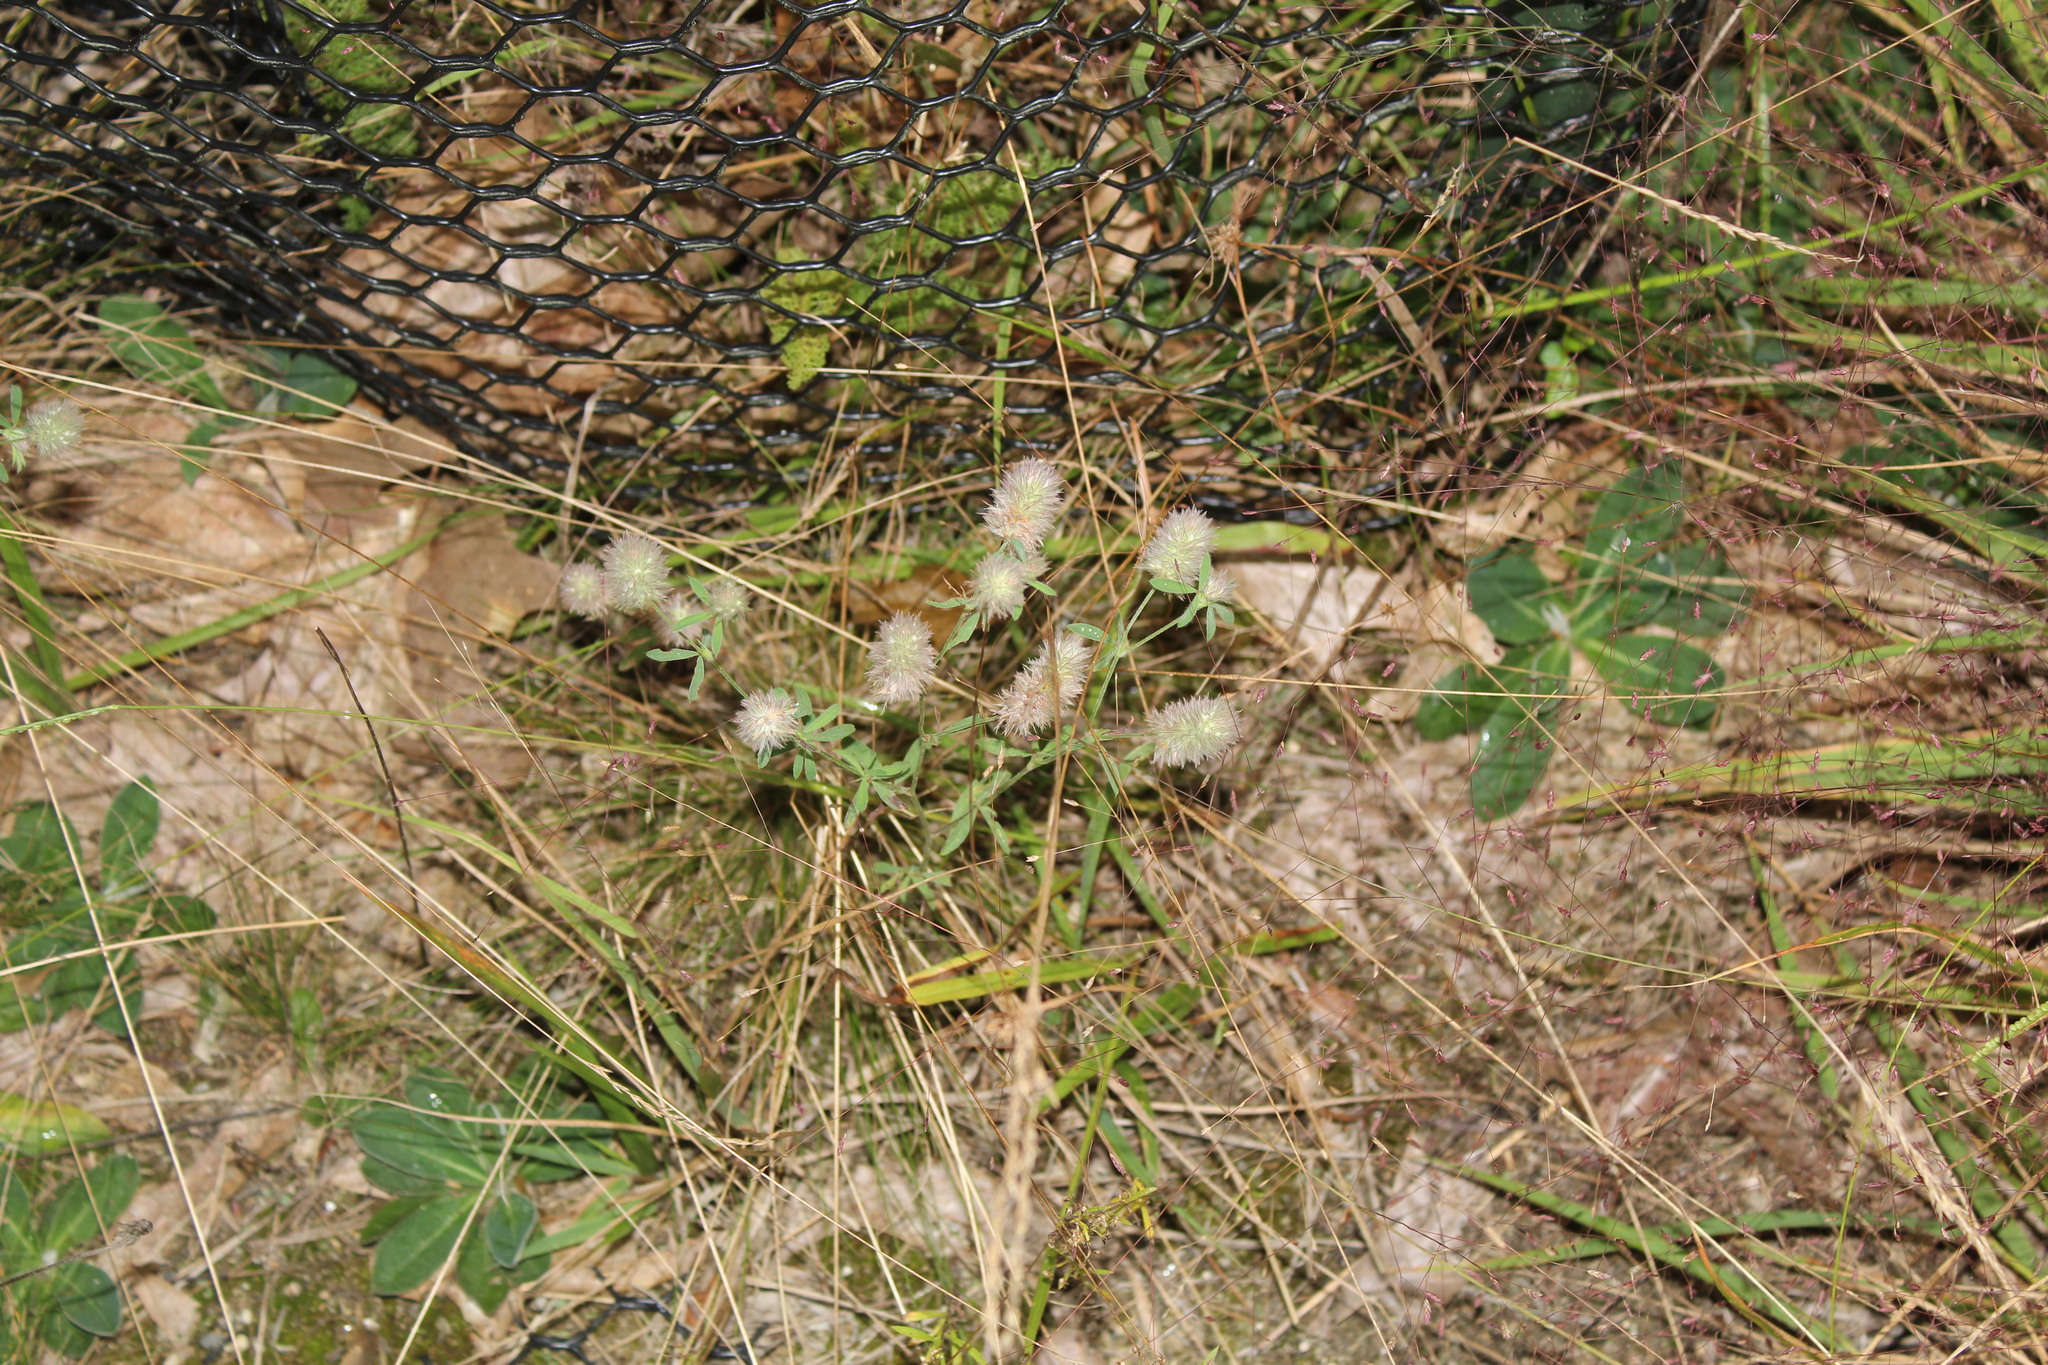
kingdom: Plantae
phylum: Tracheophyta
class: Magnoliopsida
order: Fabales
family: Fabaceae
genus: Trifolium
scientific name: Trifolium arvense
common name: Hare's-foot clover
